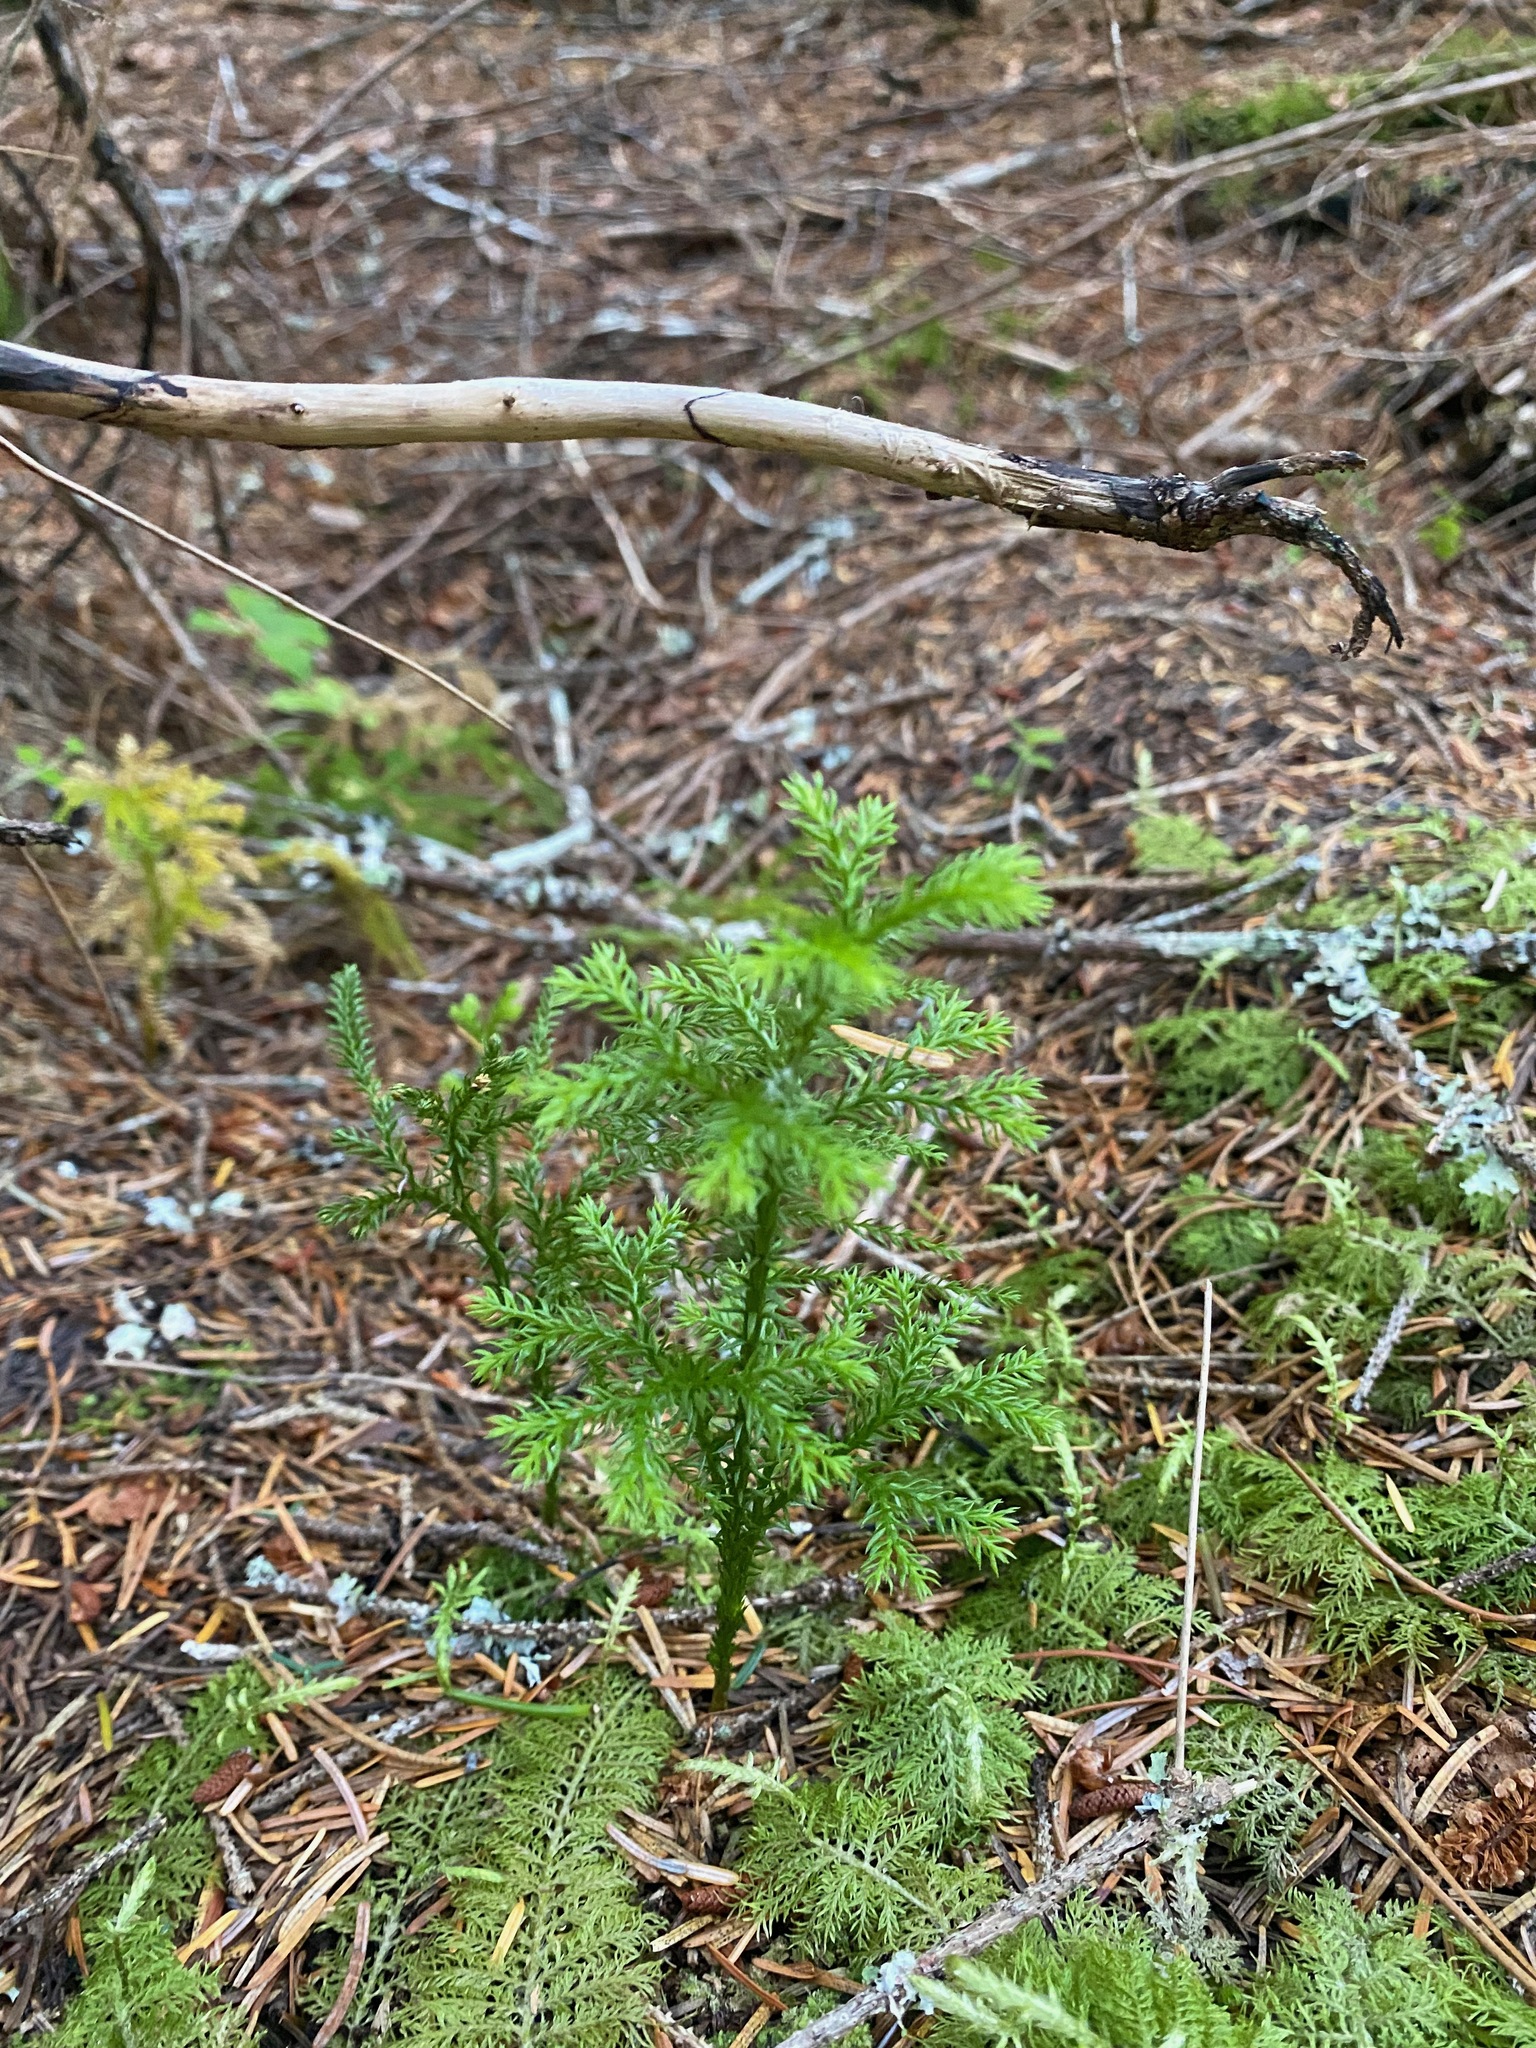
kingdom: Plantae
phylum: Tracheophyta
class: Lycopodiopsida
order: Lycopodiales
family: Lycopodiaceae
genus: Dendrolycopodium
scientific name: Dendrolycopodium dendroideum
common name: Northern tree-clubmoss
